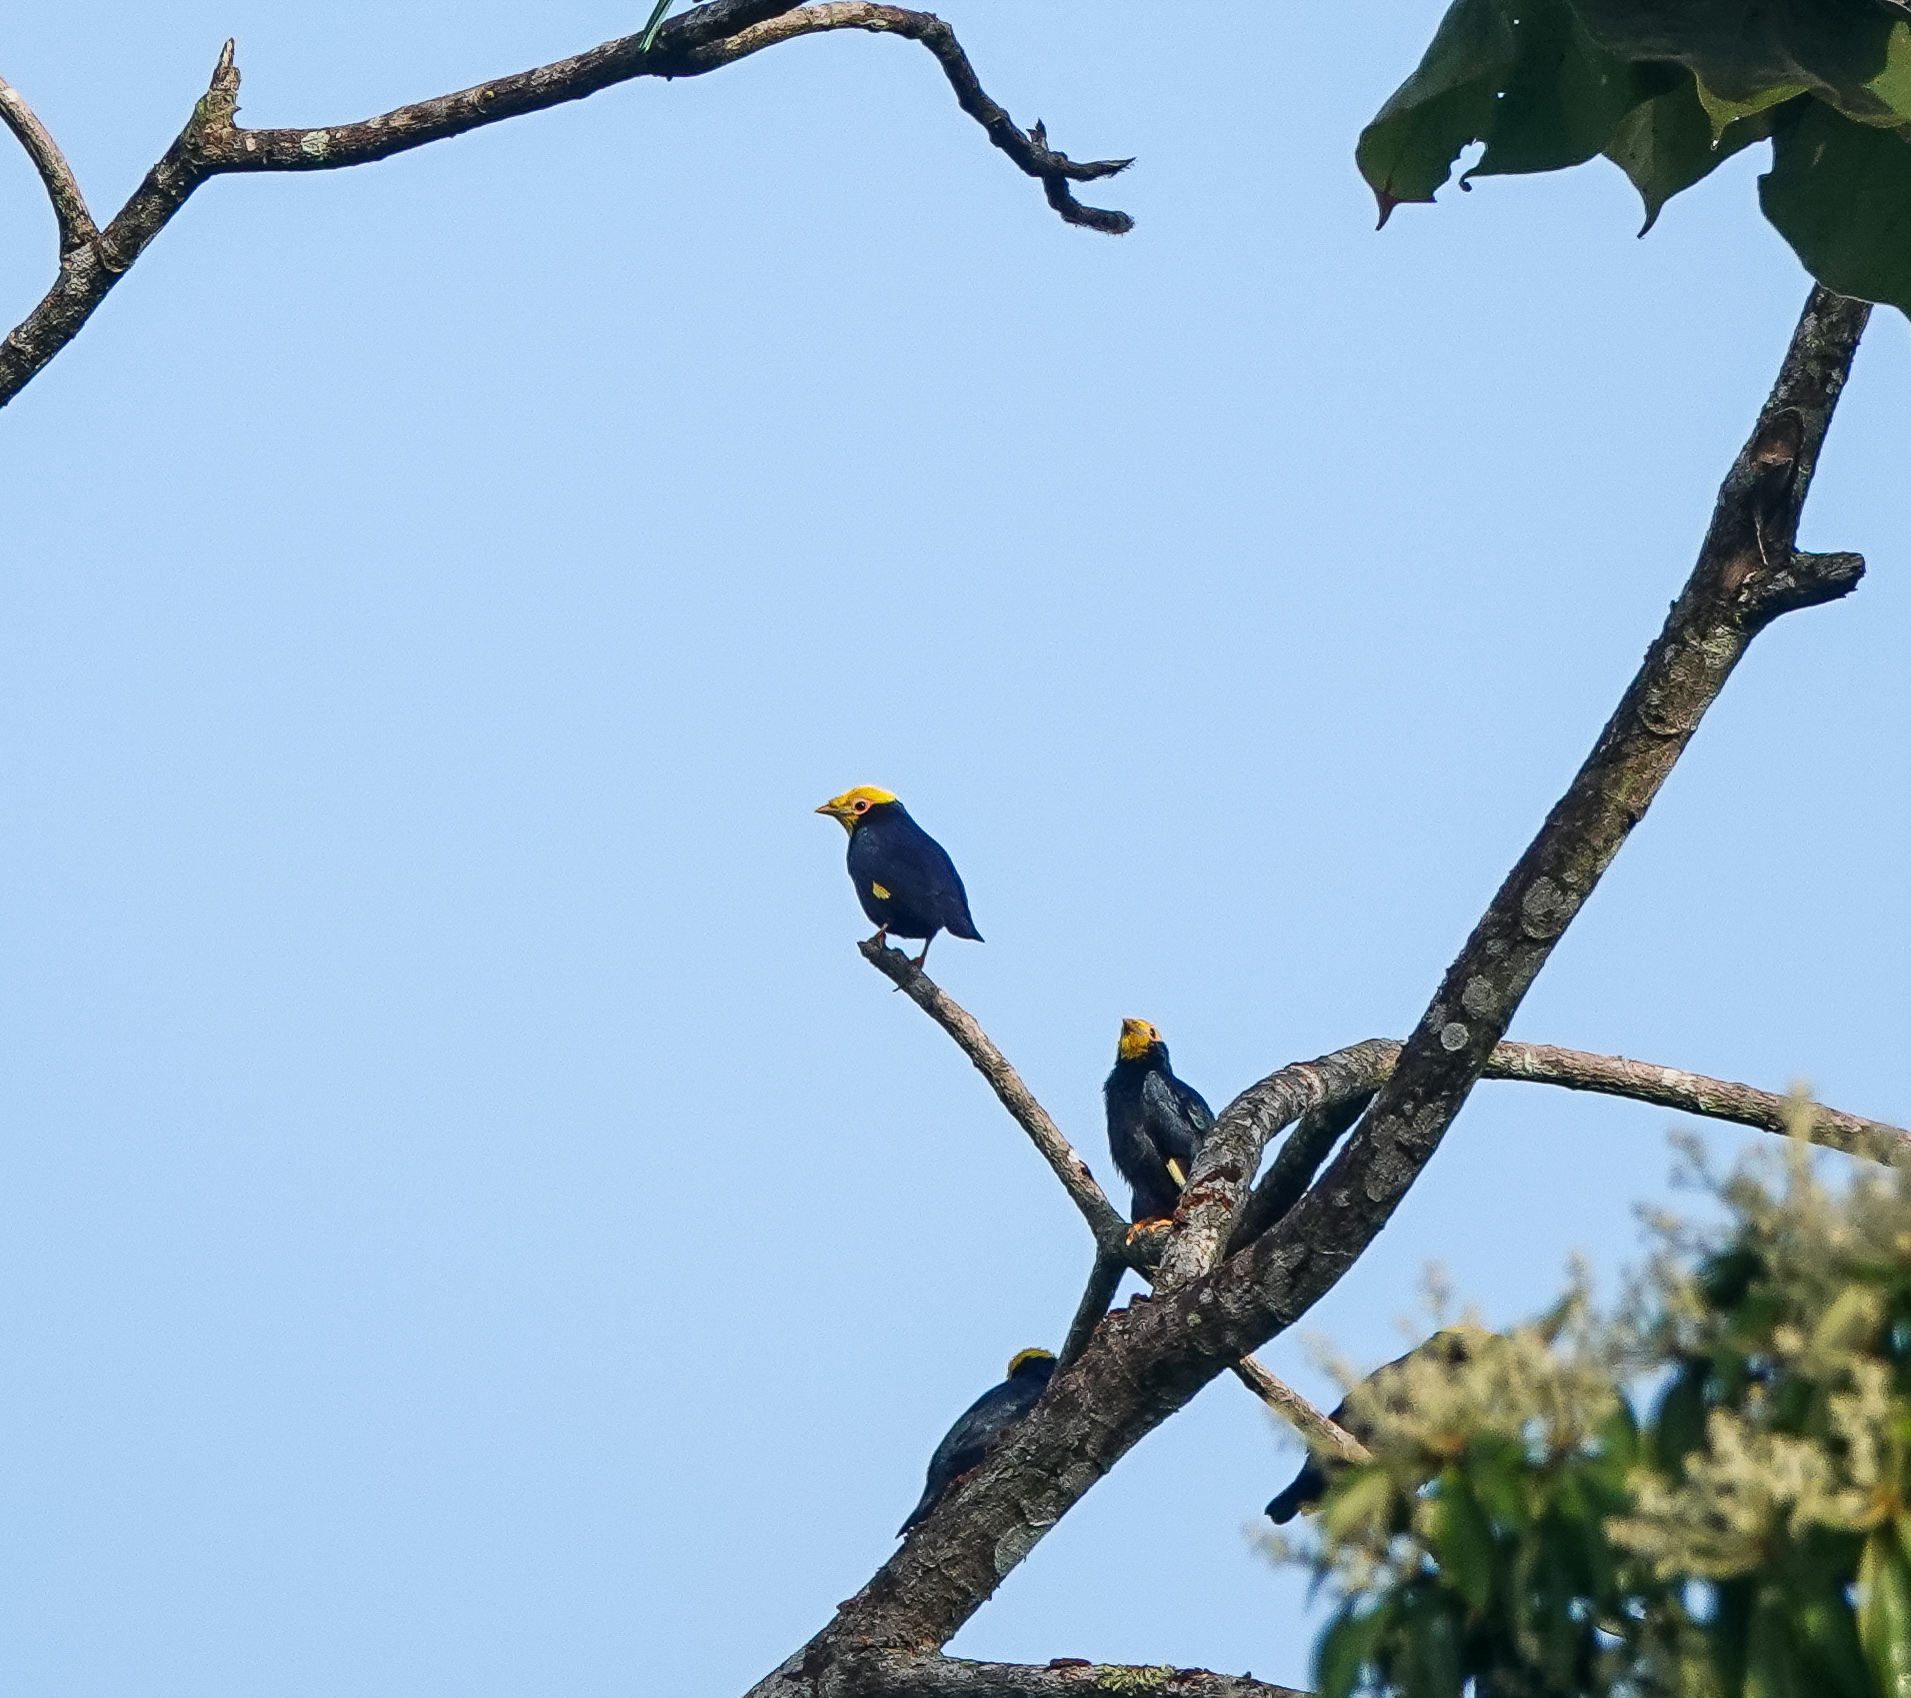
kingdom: Animalia
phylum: Chordata
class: Aves
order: Passeriformes
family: Sturnidae
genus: Ampeliceps
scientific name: Ampeliceps coronatus
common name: Golden-crested myna
